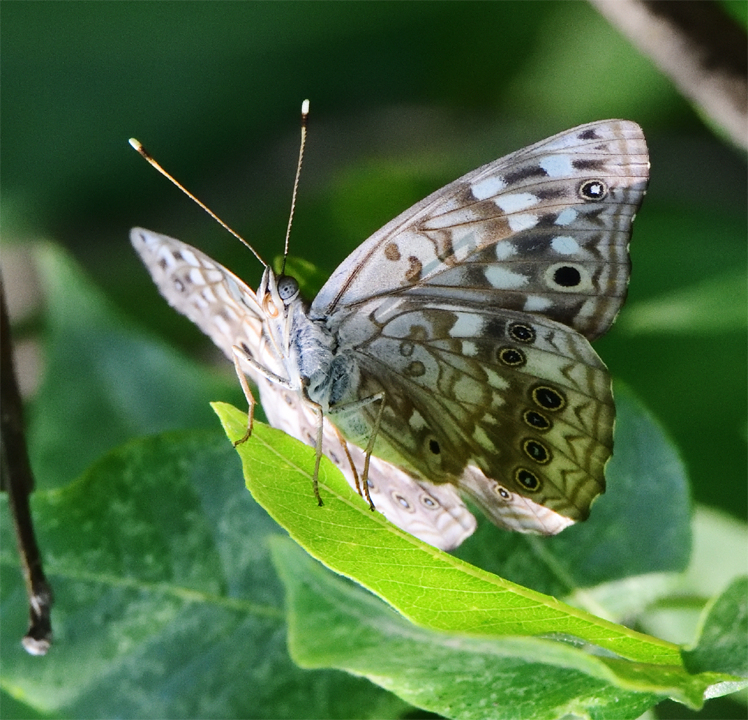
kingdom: Animalia
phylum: Arthropoda
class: Insecta
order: Lepidoptera
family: Nymphalidae
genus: Asterocampa
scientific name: Asterocampa celtis
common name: Hackberry emperor
